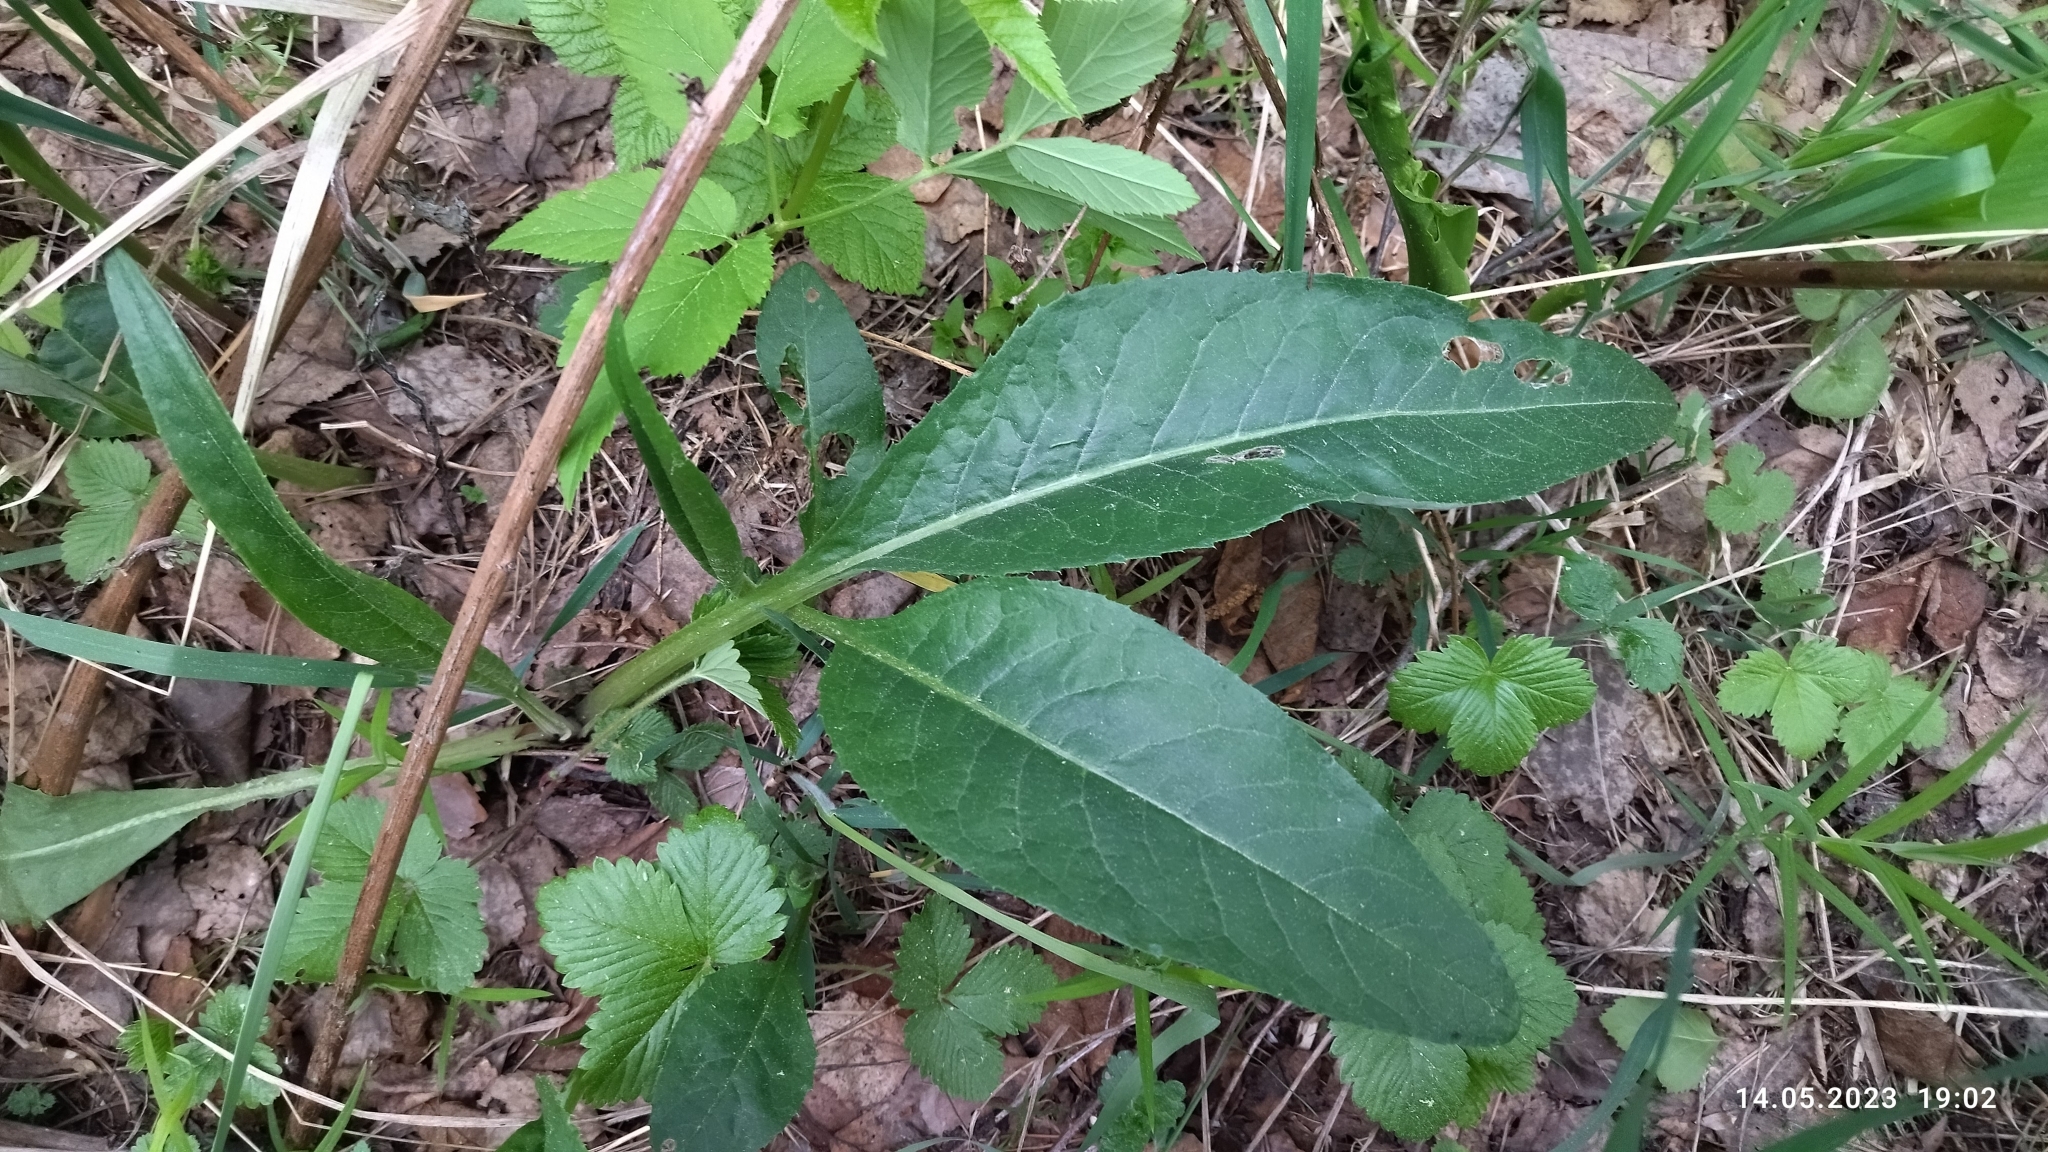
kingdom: Plantae
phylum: Tracheophyta
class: Magnoliopsida
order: Asterales
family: Asteraceae
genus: Cirsium
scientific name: Cirsium heterophyllum
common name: Melancholy thistle
